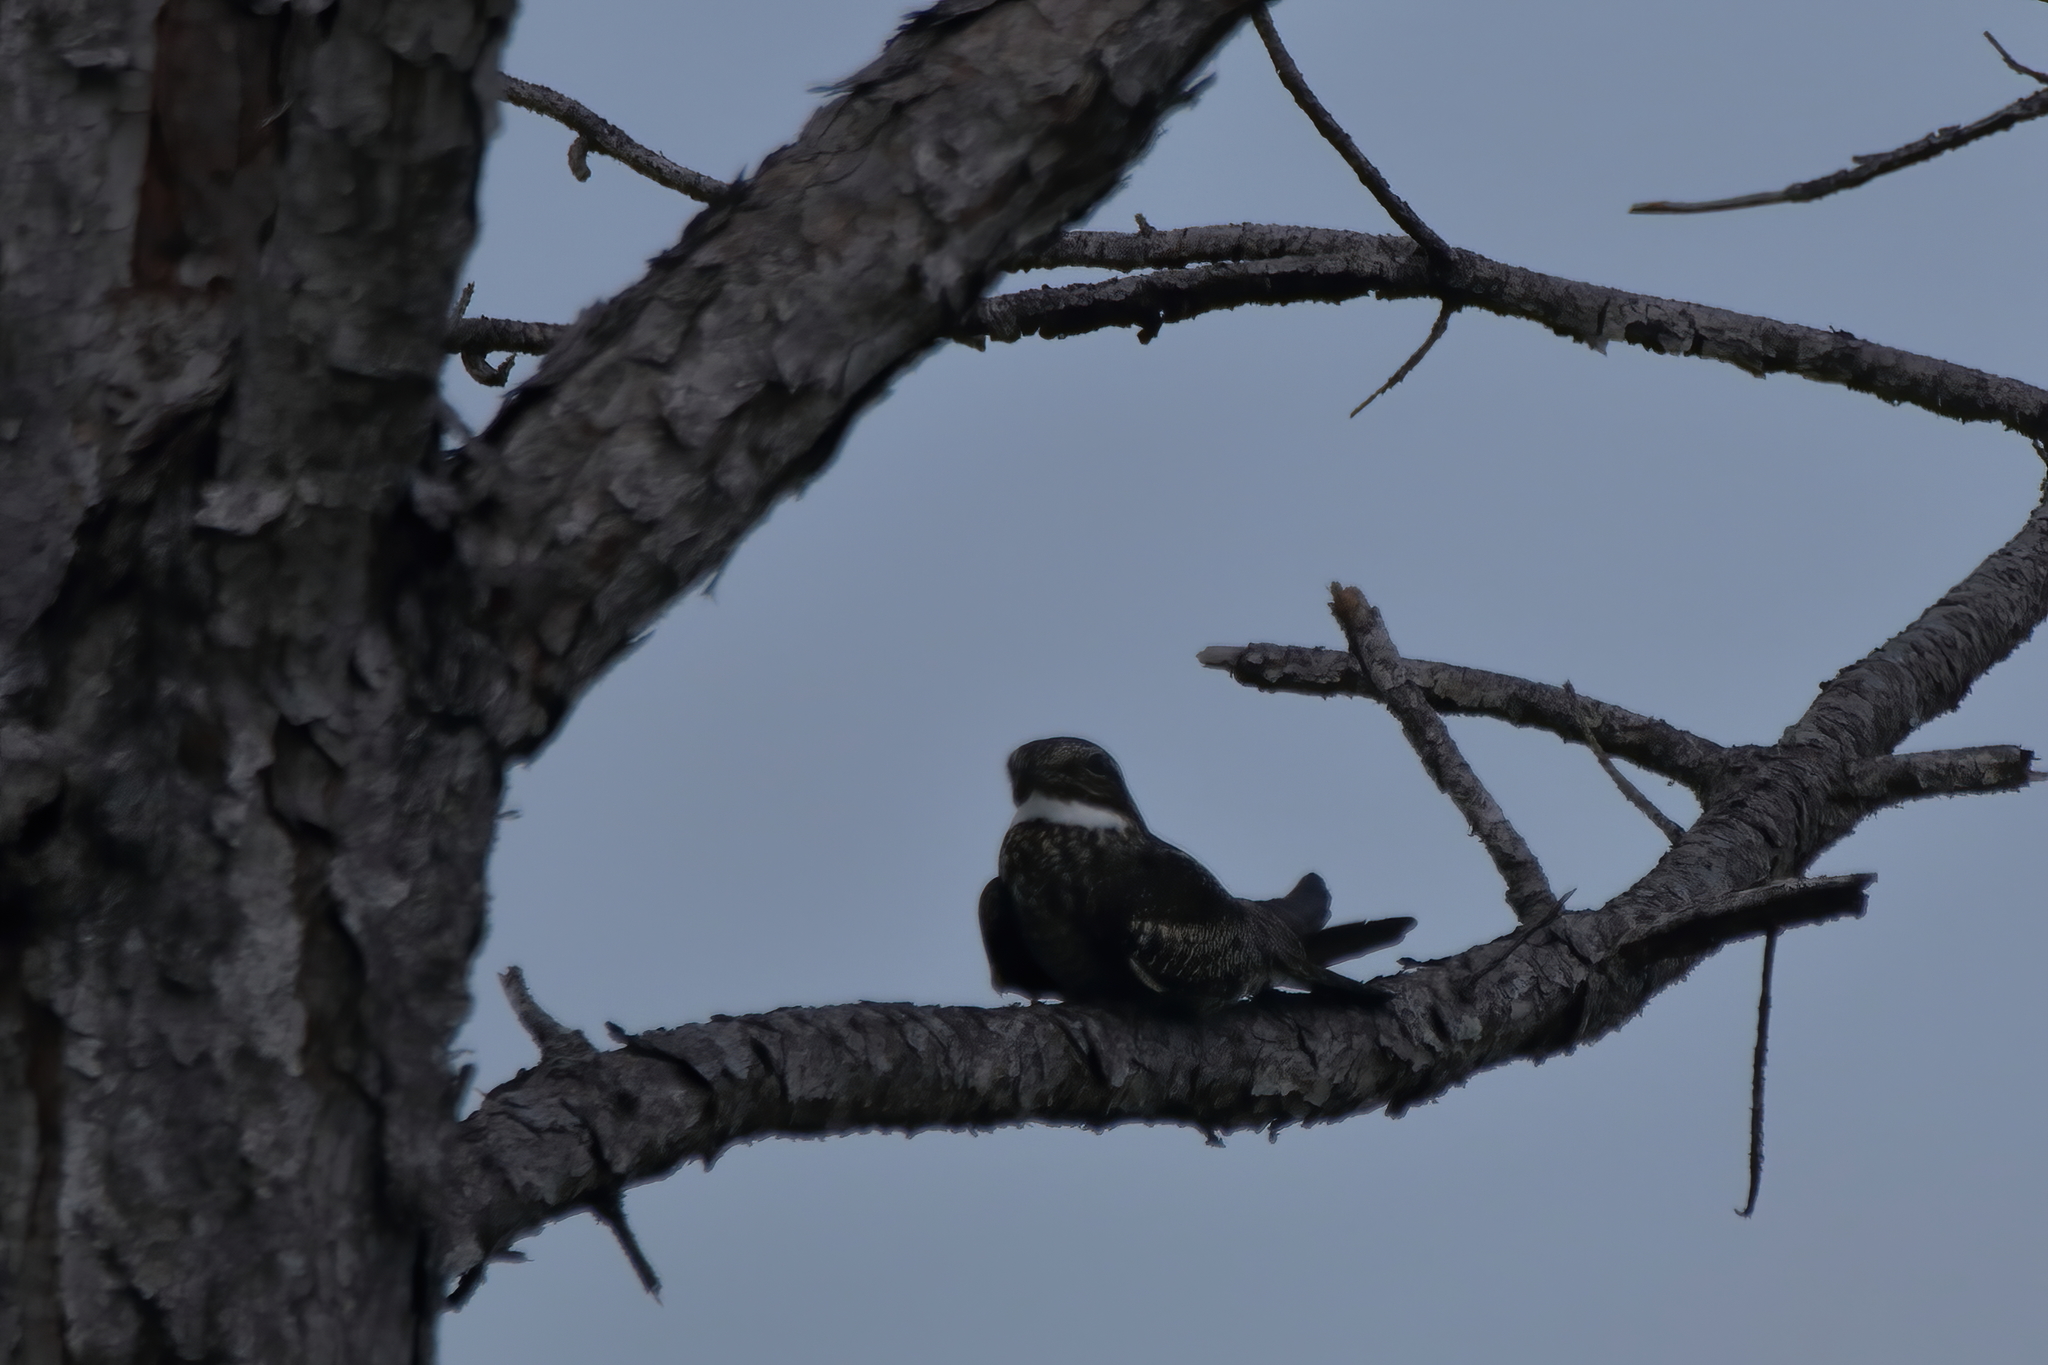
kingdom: Animalia
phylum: Chordata
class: Aves
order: Caprimulgiformes
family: Caprimulgidae
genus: Chordeiles
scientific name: Chordeiles minor
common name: Common nighthawk
